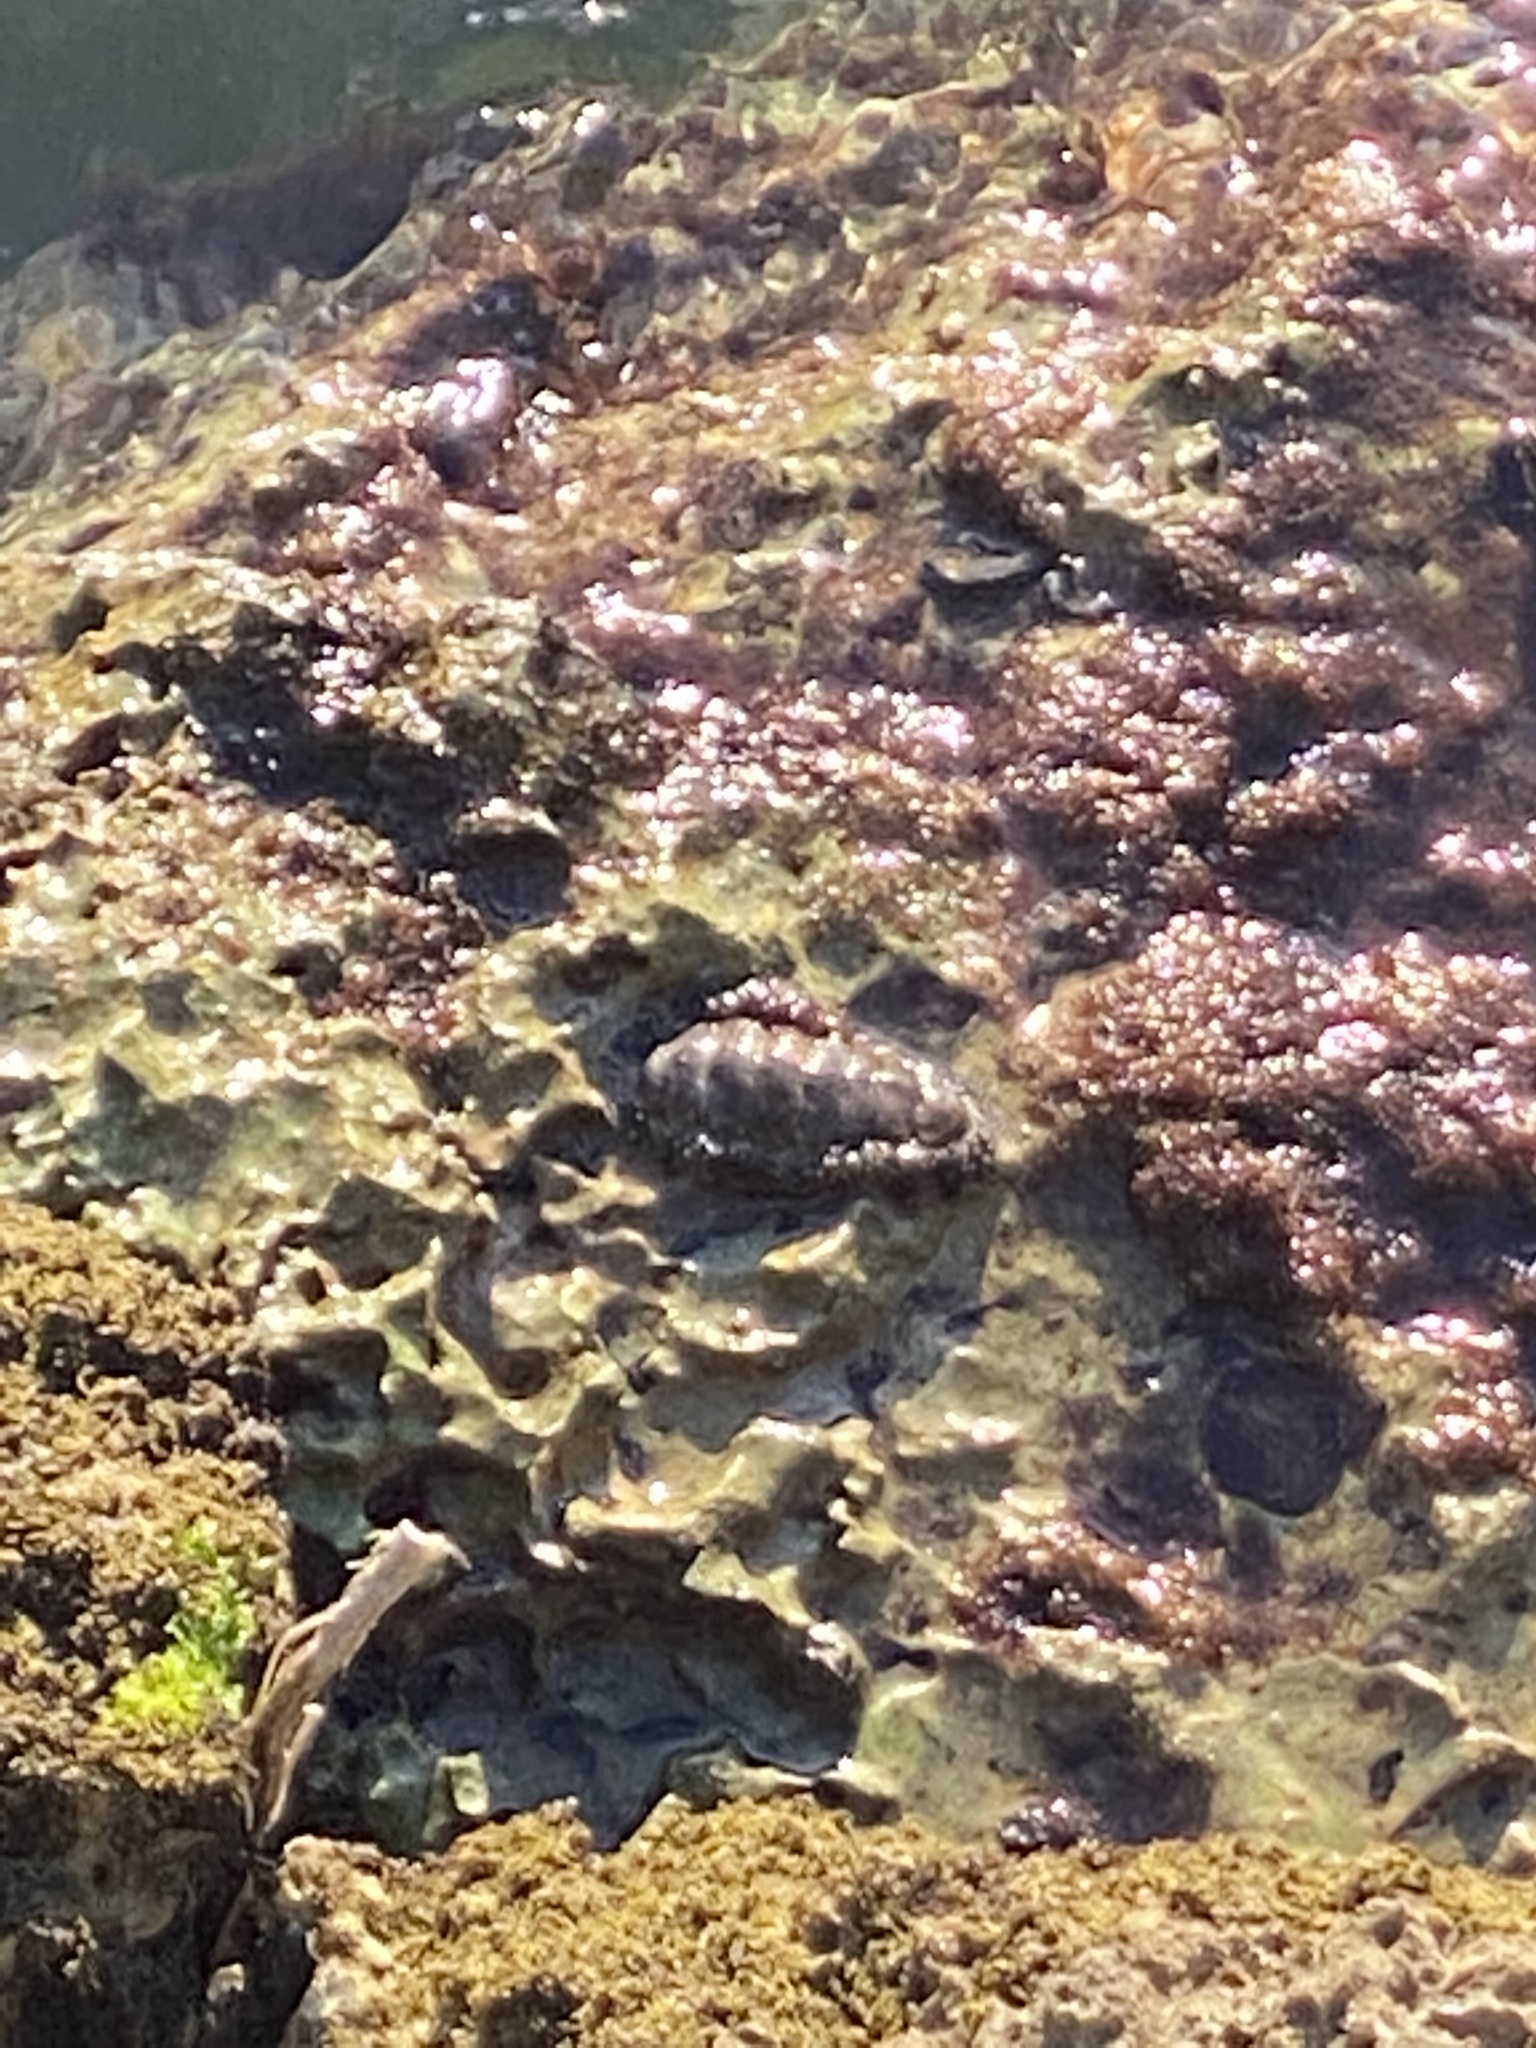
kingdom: Animalia
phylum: Mollusca
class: Polyplacophora
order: Chitonida
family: Chitonidae
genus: Acanthopleura
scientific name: Acanthopleura granulata
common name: West indian fuzzy chiton
